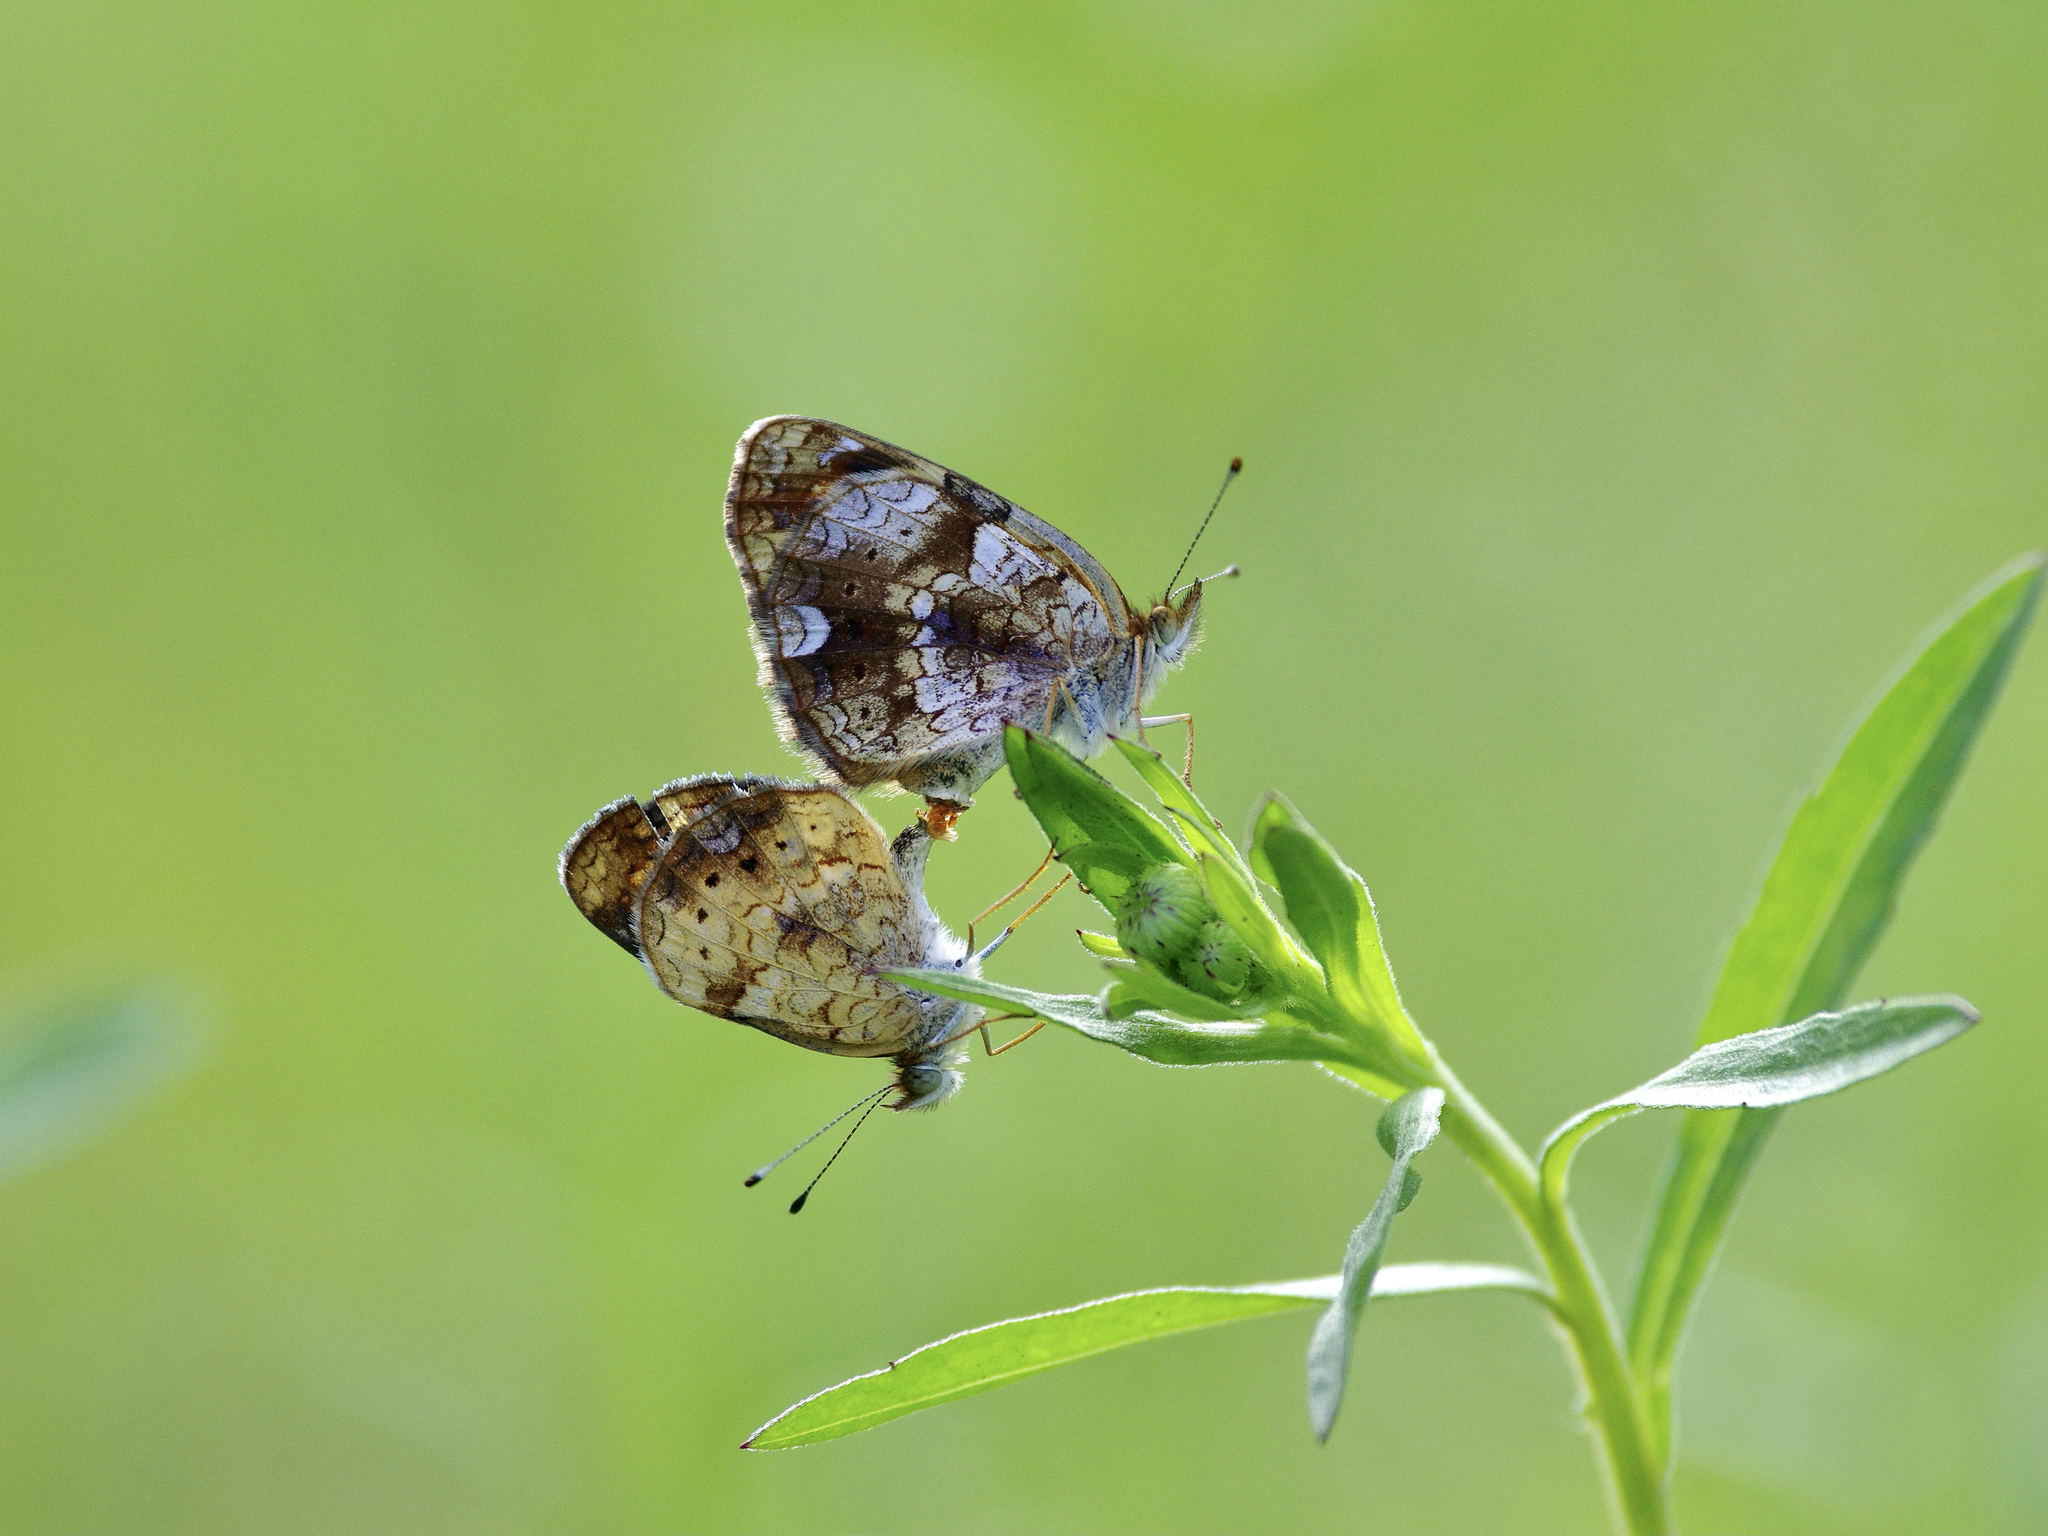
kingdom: Animalia
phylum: Arthropoda
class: Insecta
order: Lepidoptera
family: Nymphalidae
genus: Phyciodes
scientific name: Phyciodes phaon
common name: Phaon crescent
